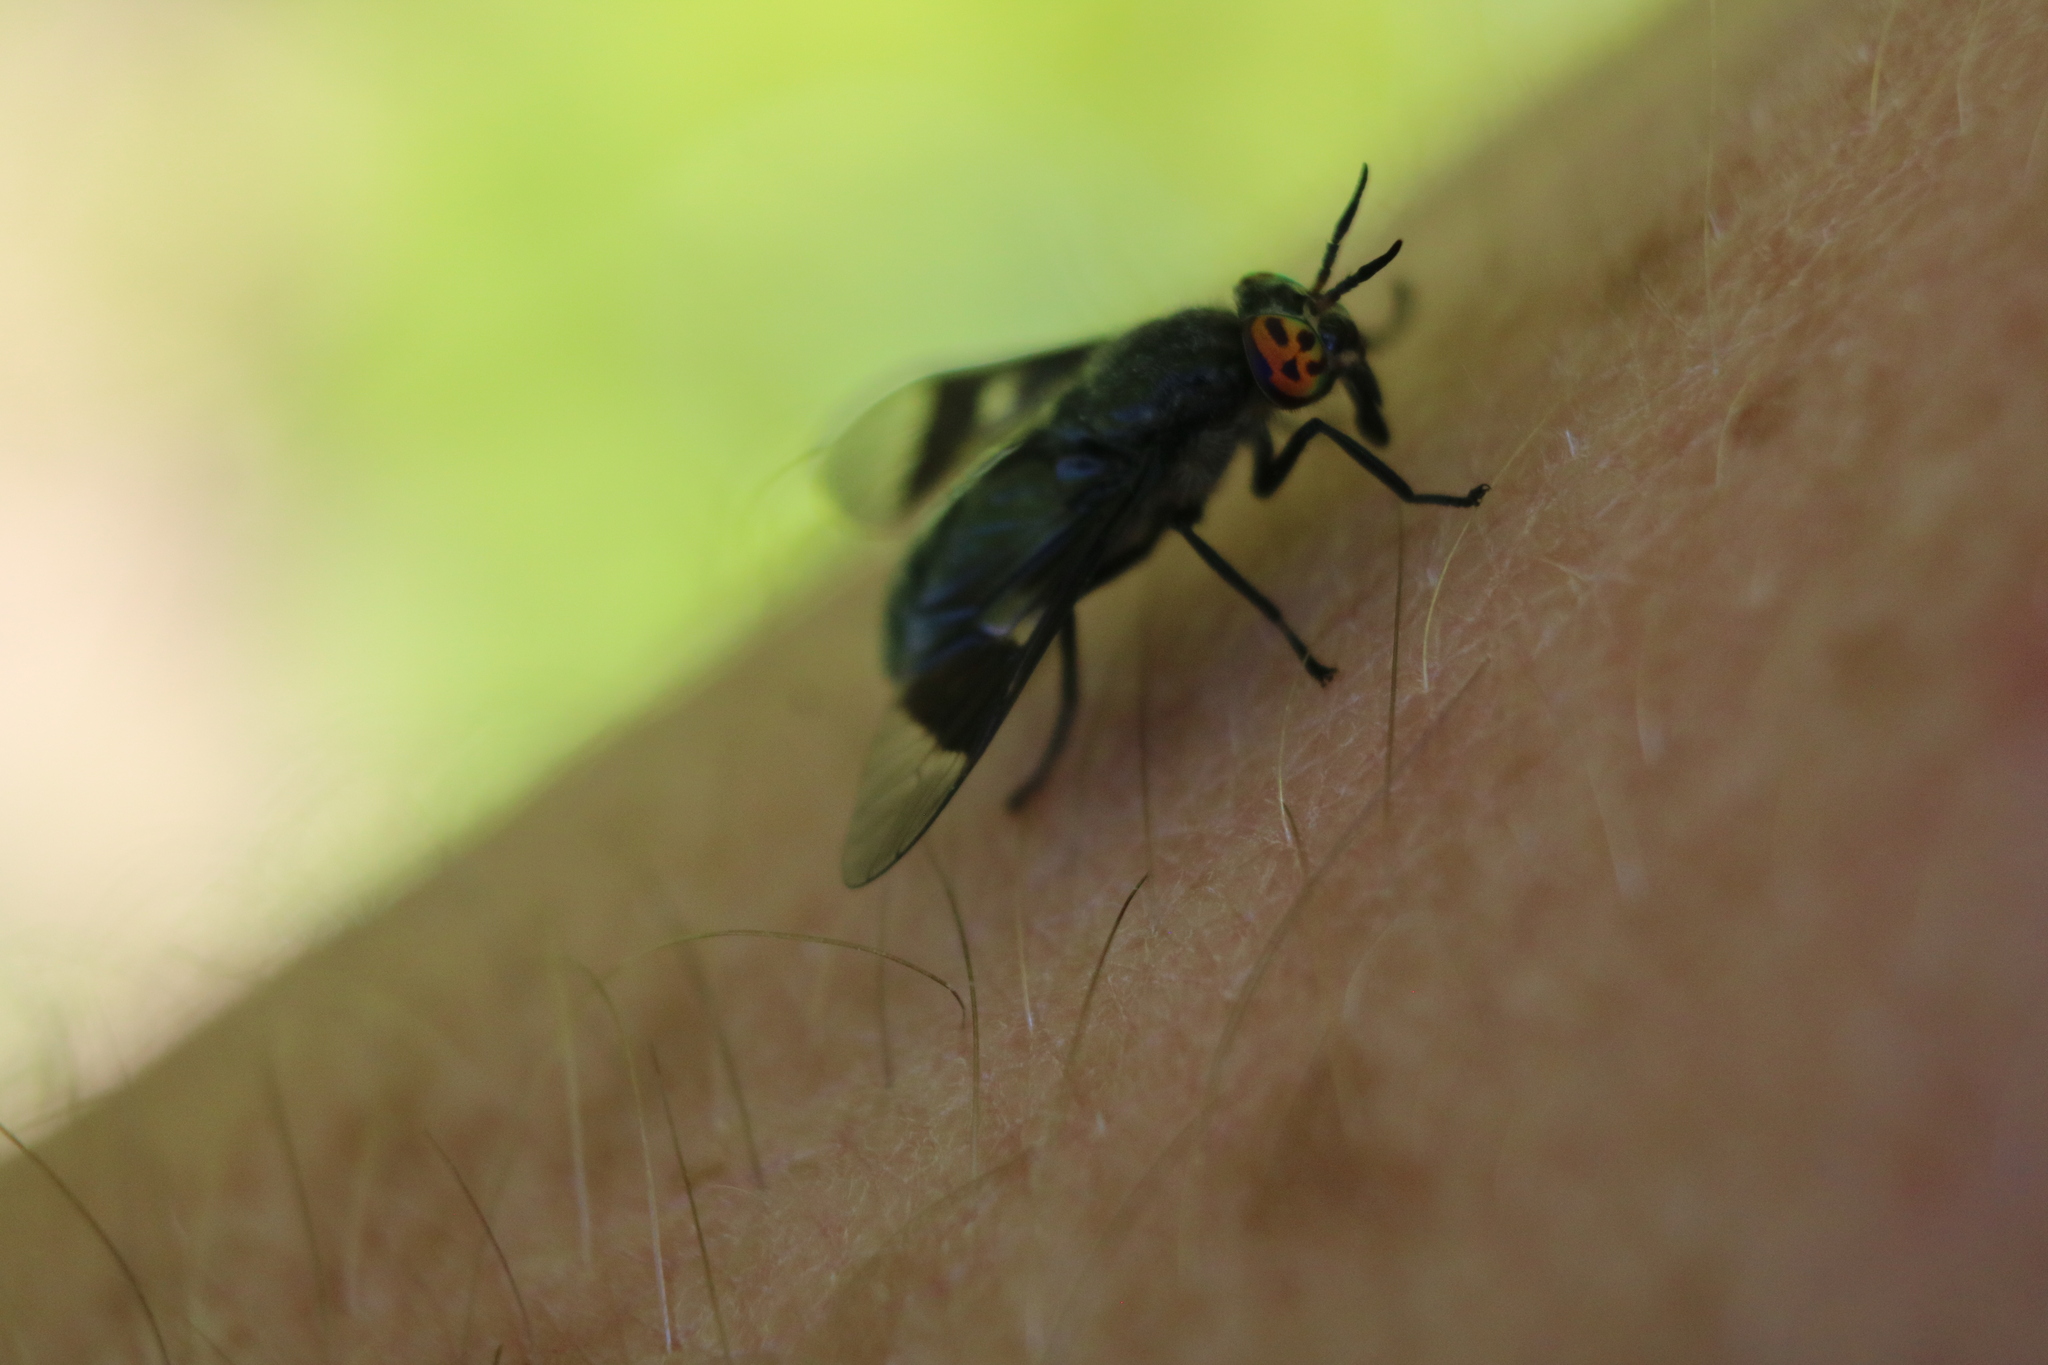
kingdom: Animalia
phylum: Arthropoda
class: Insecta
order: Diptera
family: Tabanidae
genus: Chrysops
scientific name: Chrysops carbonarius
